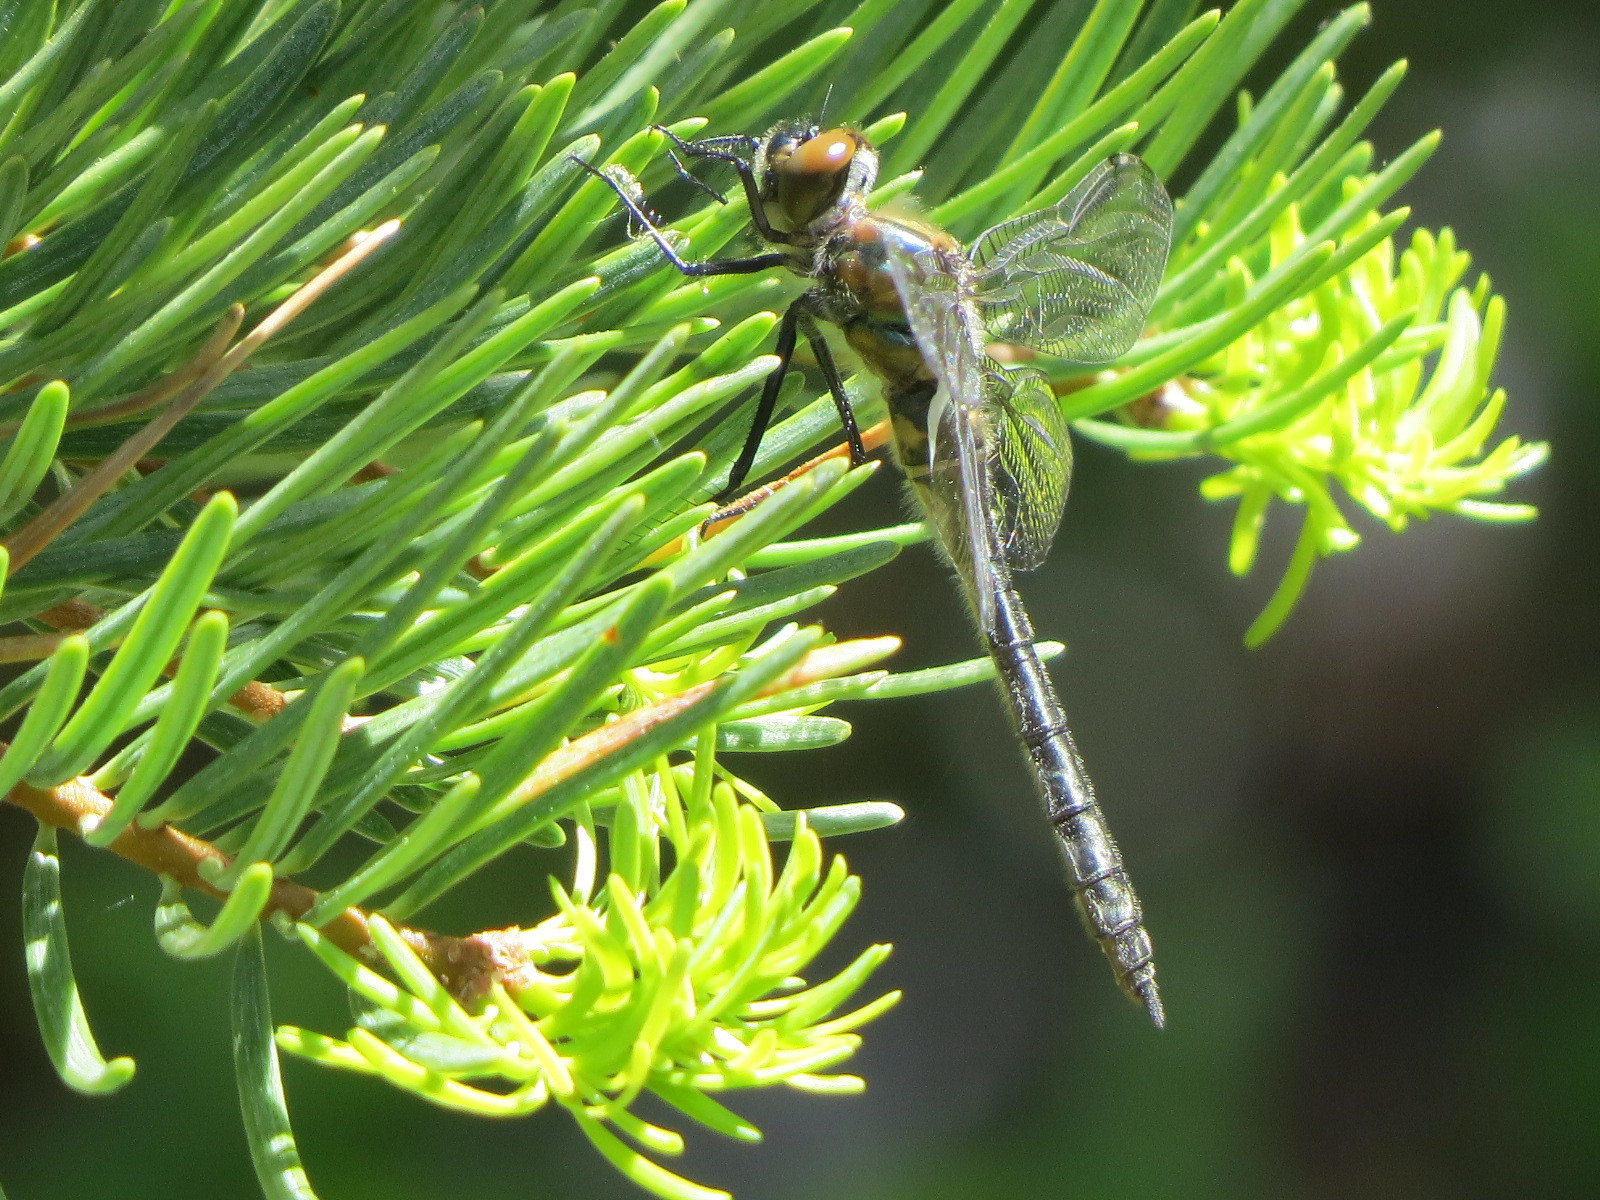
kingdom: Animalia
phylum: Arthropoda
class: Insecta
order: Odonata
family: Corduliidae
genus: Cordulia
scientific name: Cordulia shurtleffii
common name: American emerald
